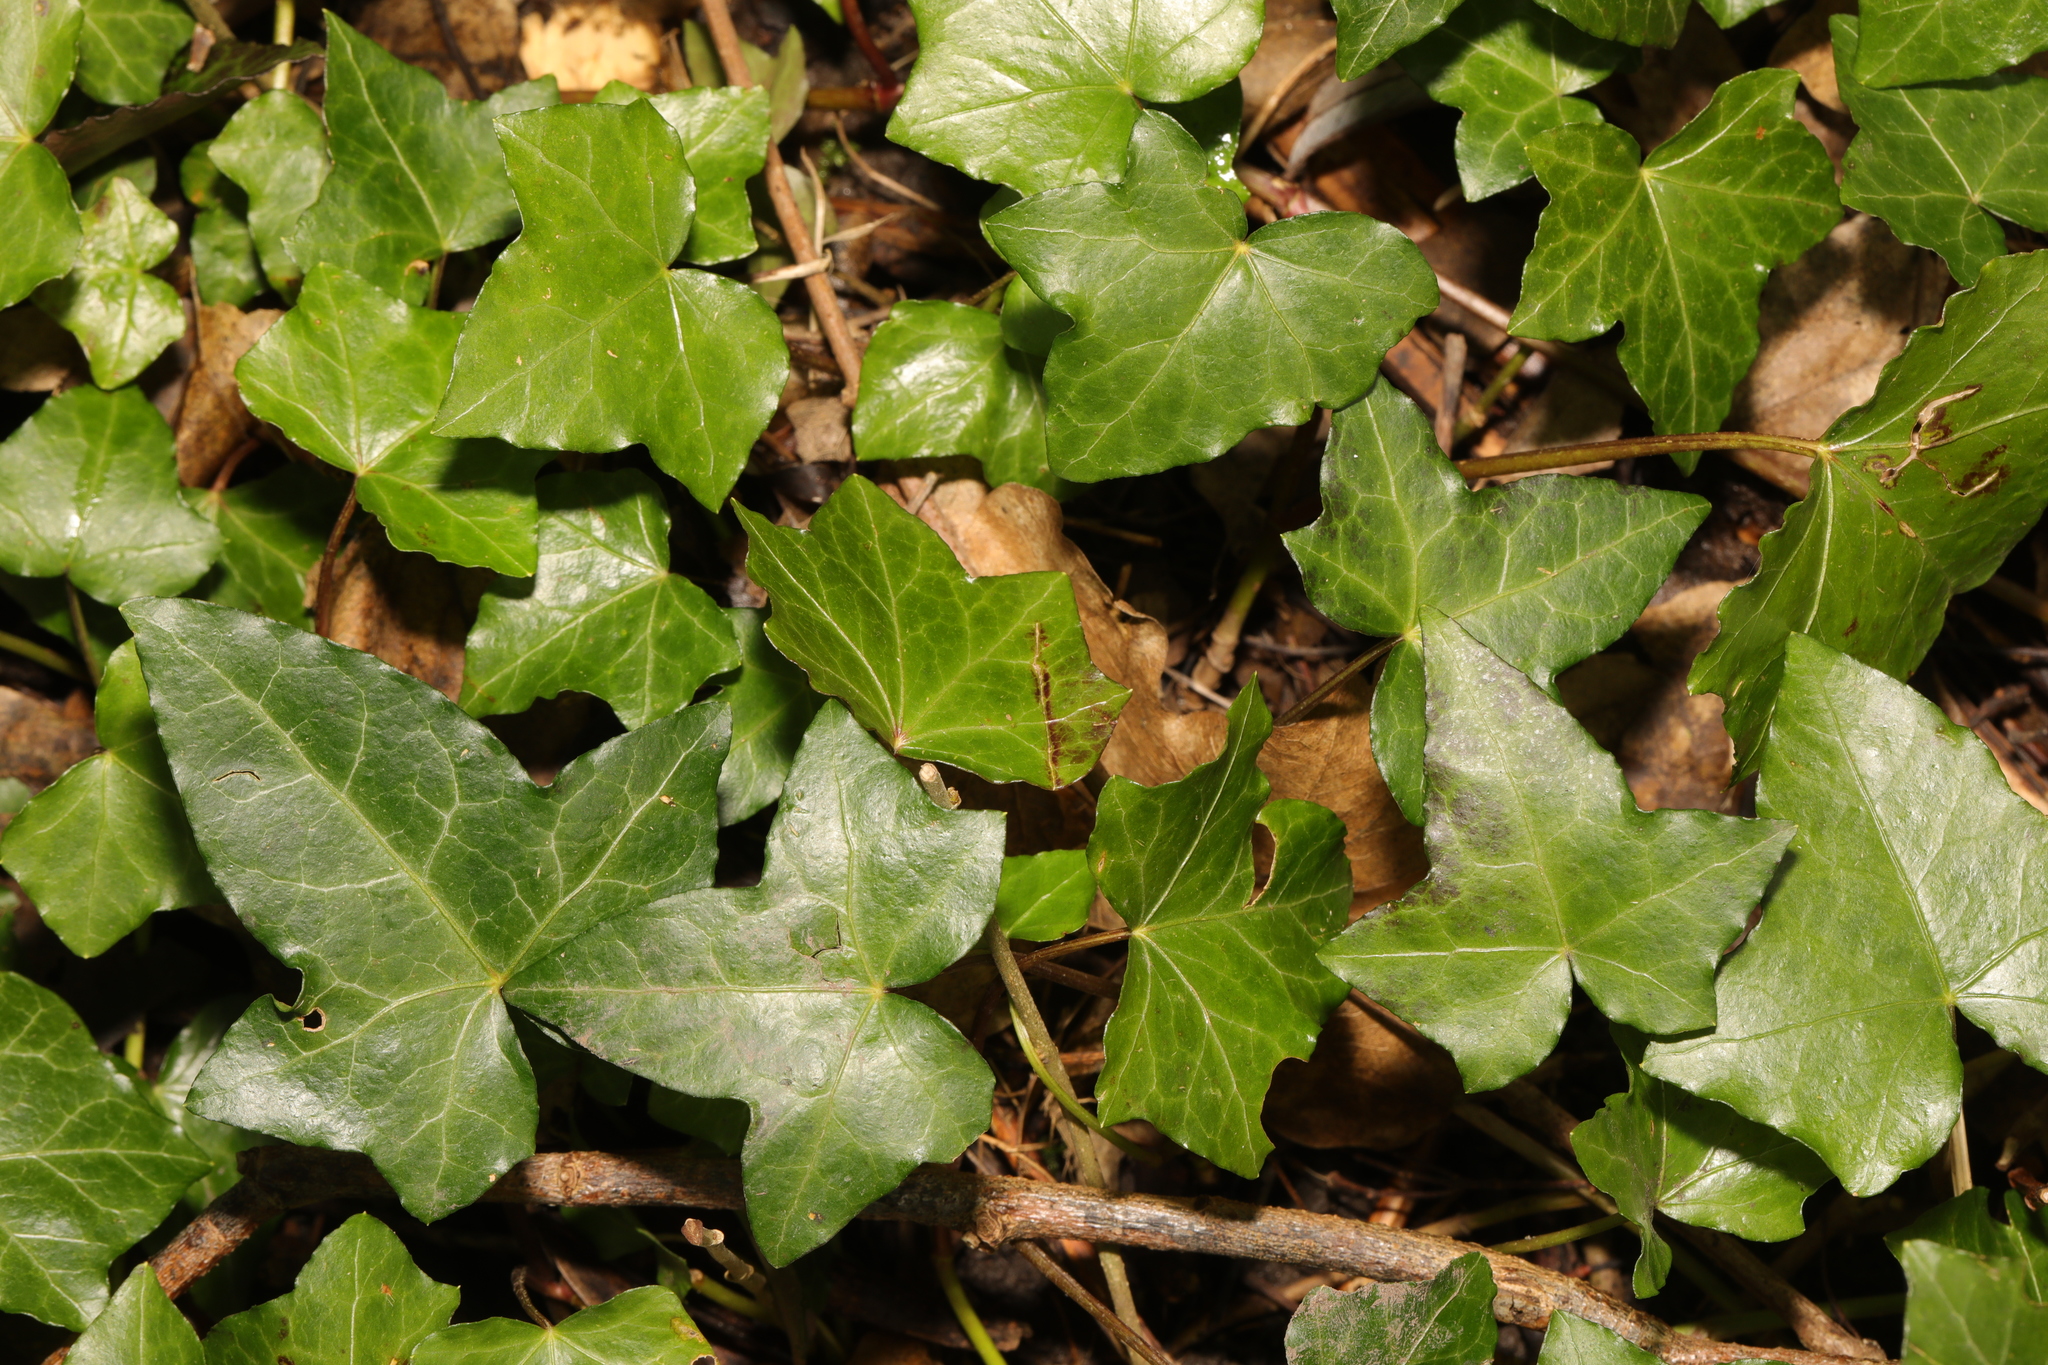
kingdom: Plantae
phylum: Tracheophyta
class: Magnoliopsida
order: Apiales
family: Araliaceae
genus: Hedera
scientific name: Hedera helix
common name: Ivy
